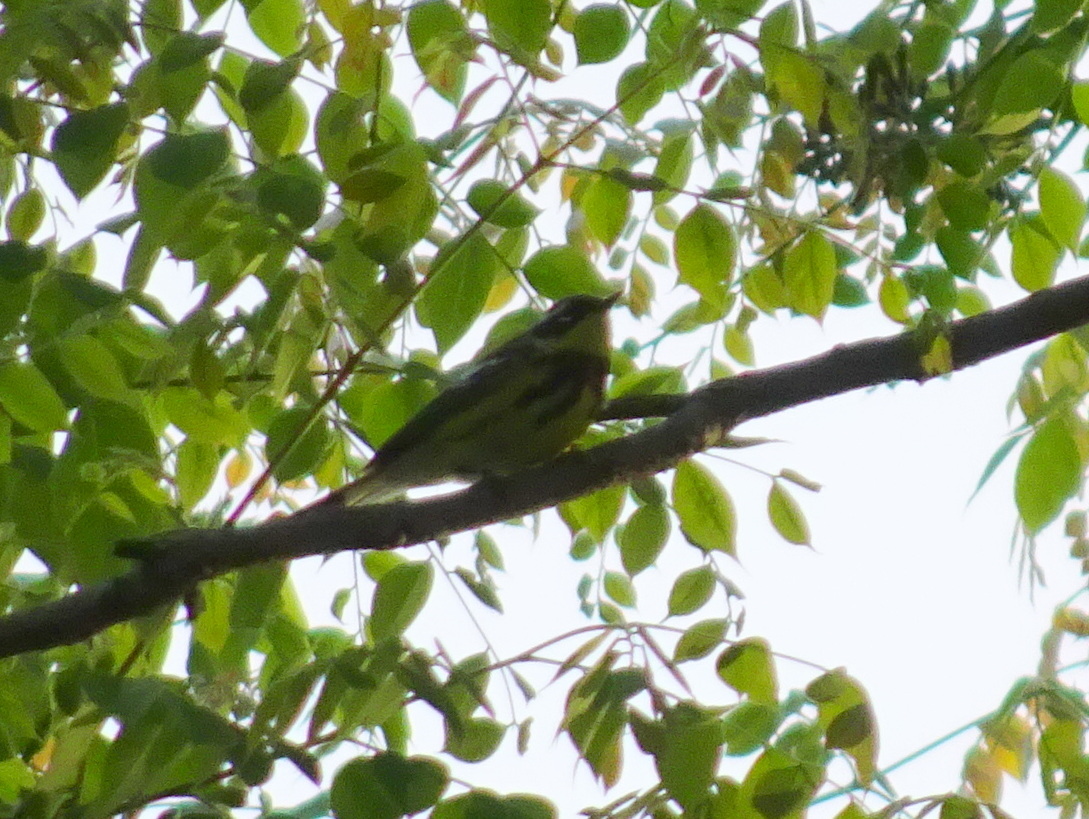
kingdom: Animalia
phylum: Chordata
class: Aves
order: Passeriformes
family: Parulidae
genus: Setophaga
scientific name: Setophaga magnolia
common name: Magnolia warbler
